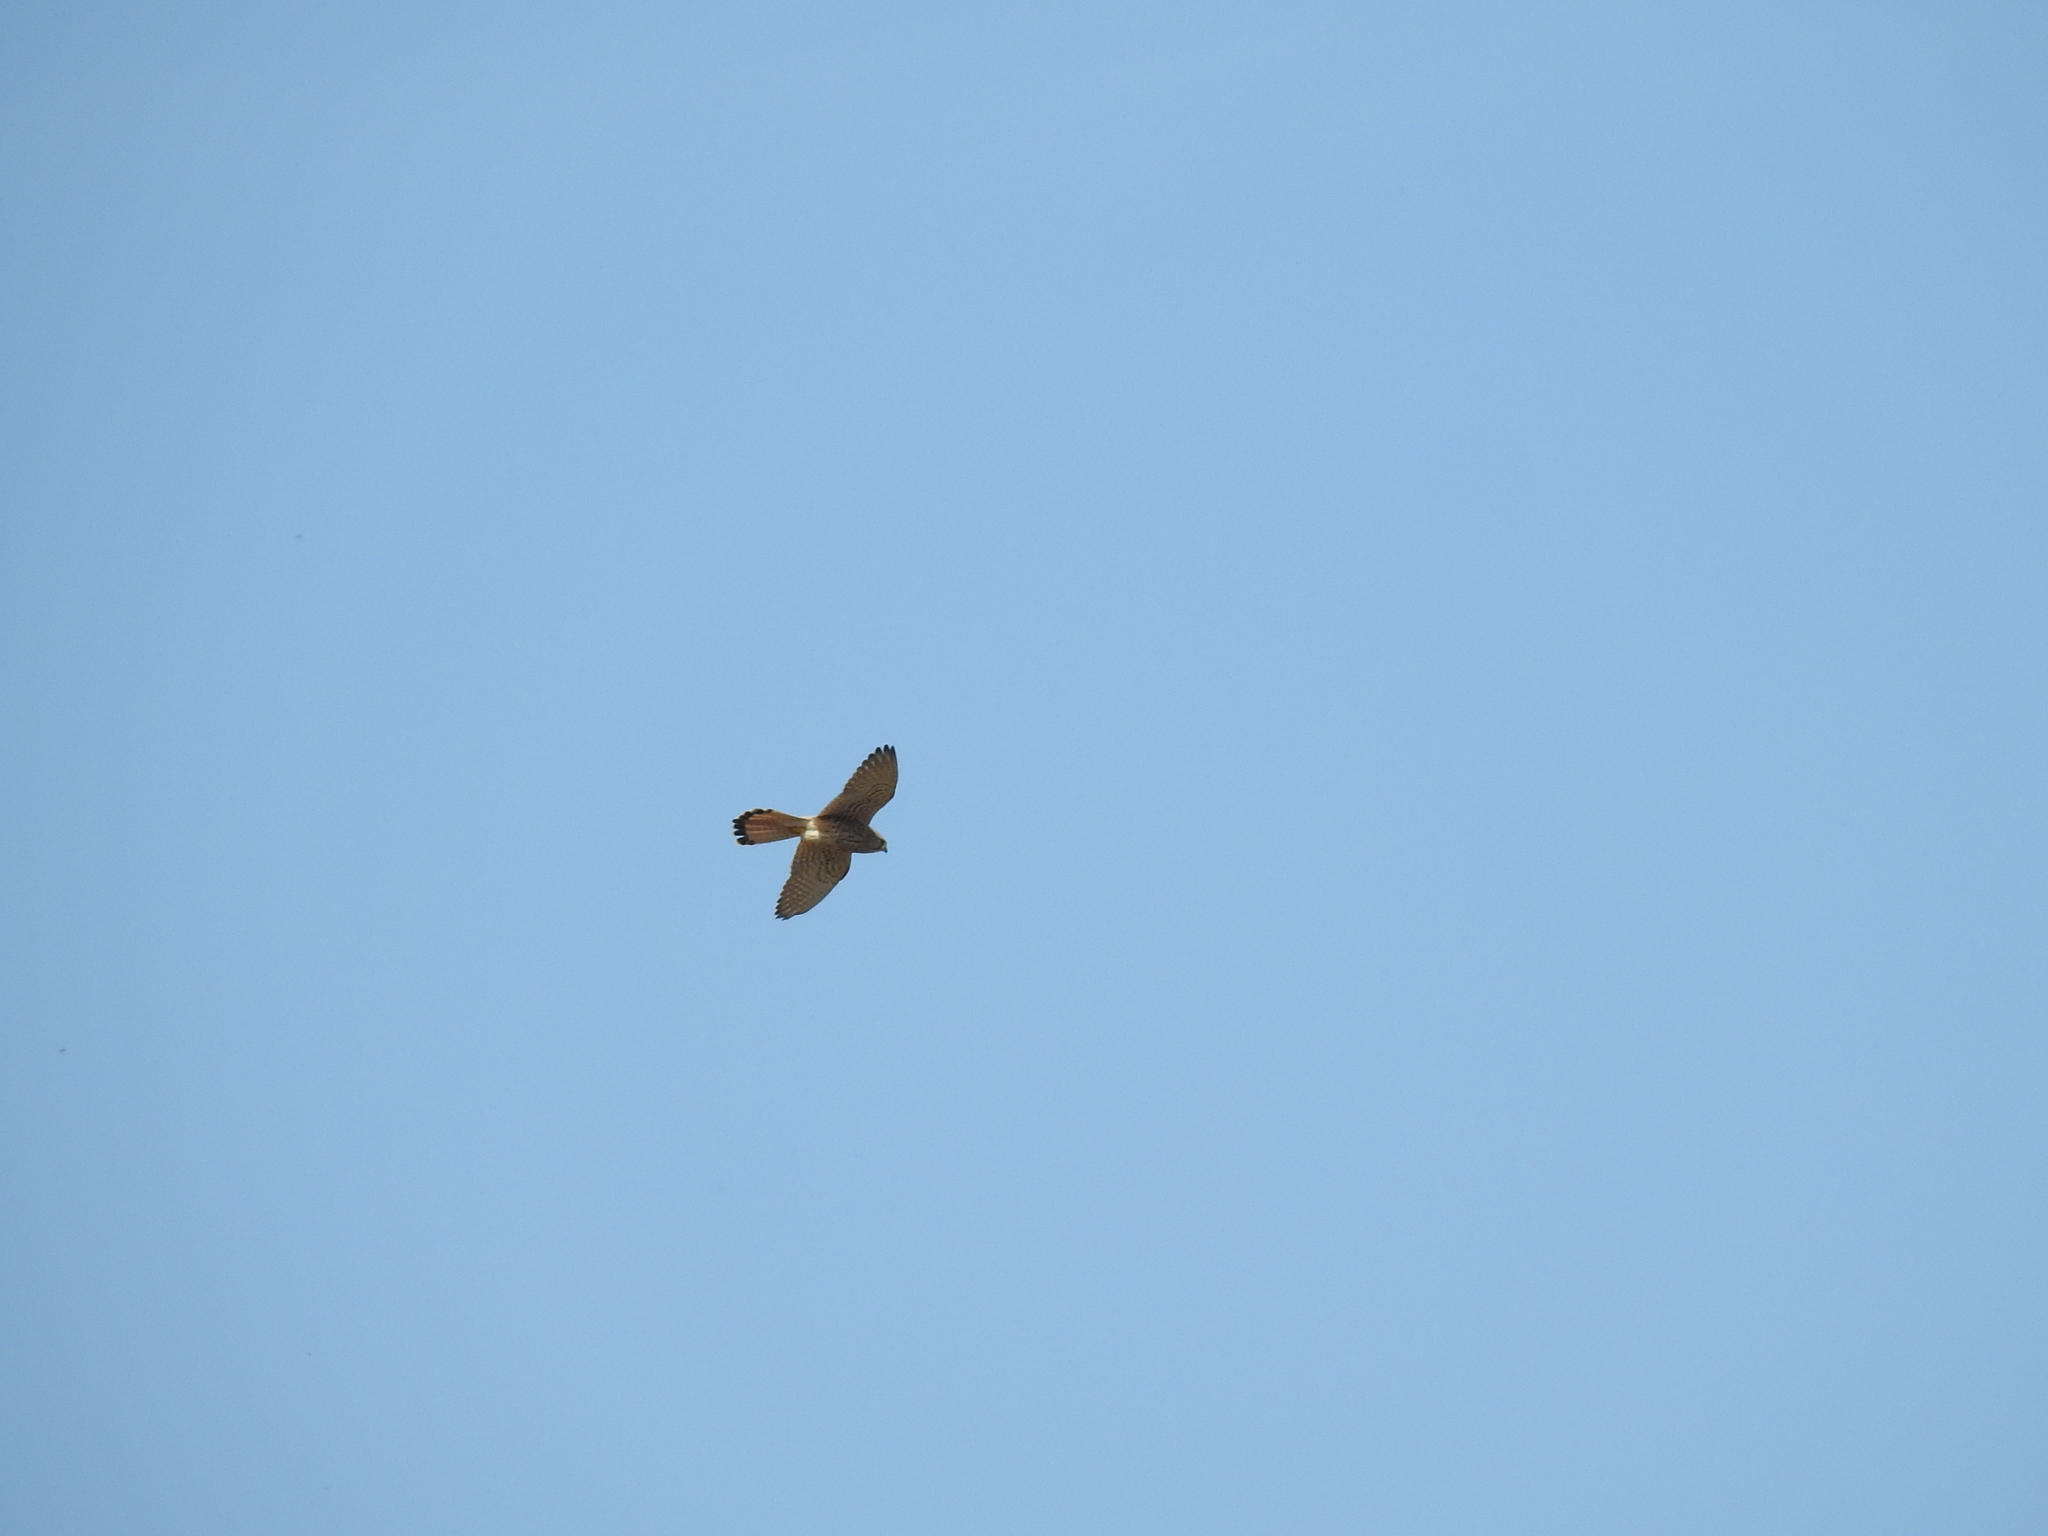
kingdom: Animalia
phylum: Chordata
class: Aves
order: Falconiformes
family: Falconidae
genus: Falco
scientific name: Falco tinnunculus
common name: Common kestrel
